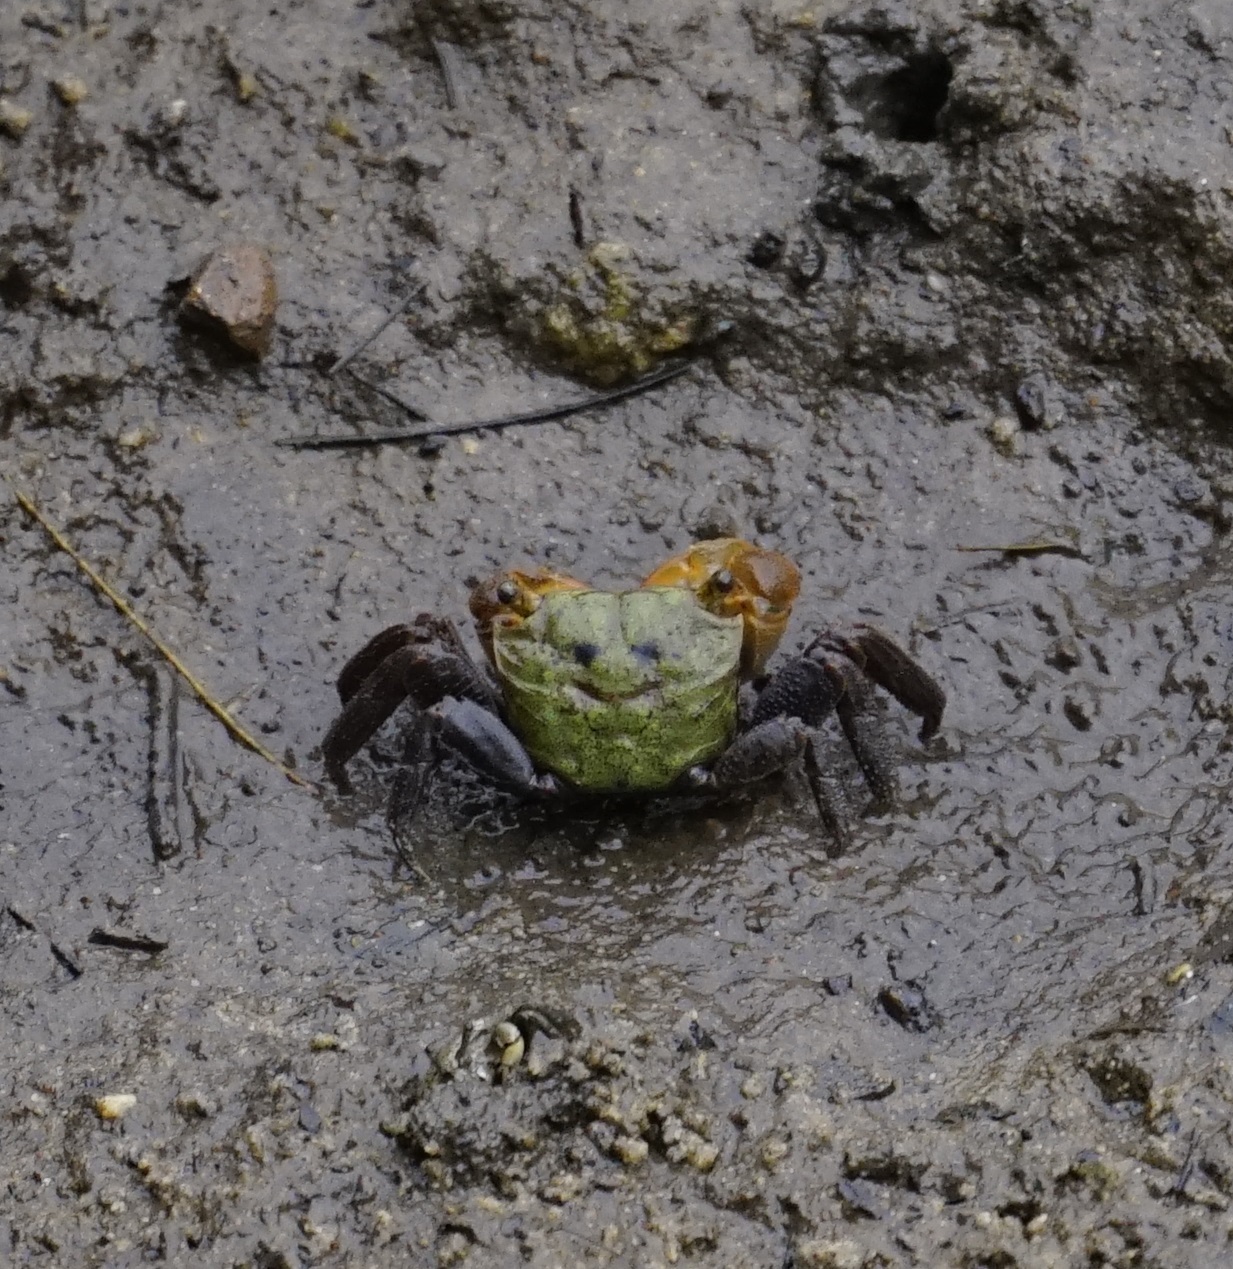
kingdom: Animalia
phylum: Arthropoda
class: Malacostraca
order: Decapoda
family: Sesarmidae
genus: Parasesarma
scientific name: Parasesarma erythodactylum
